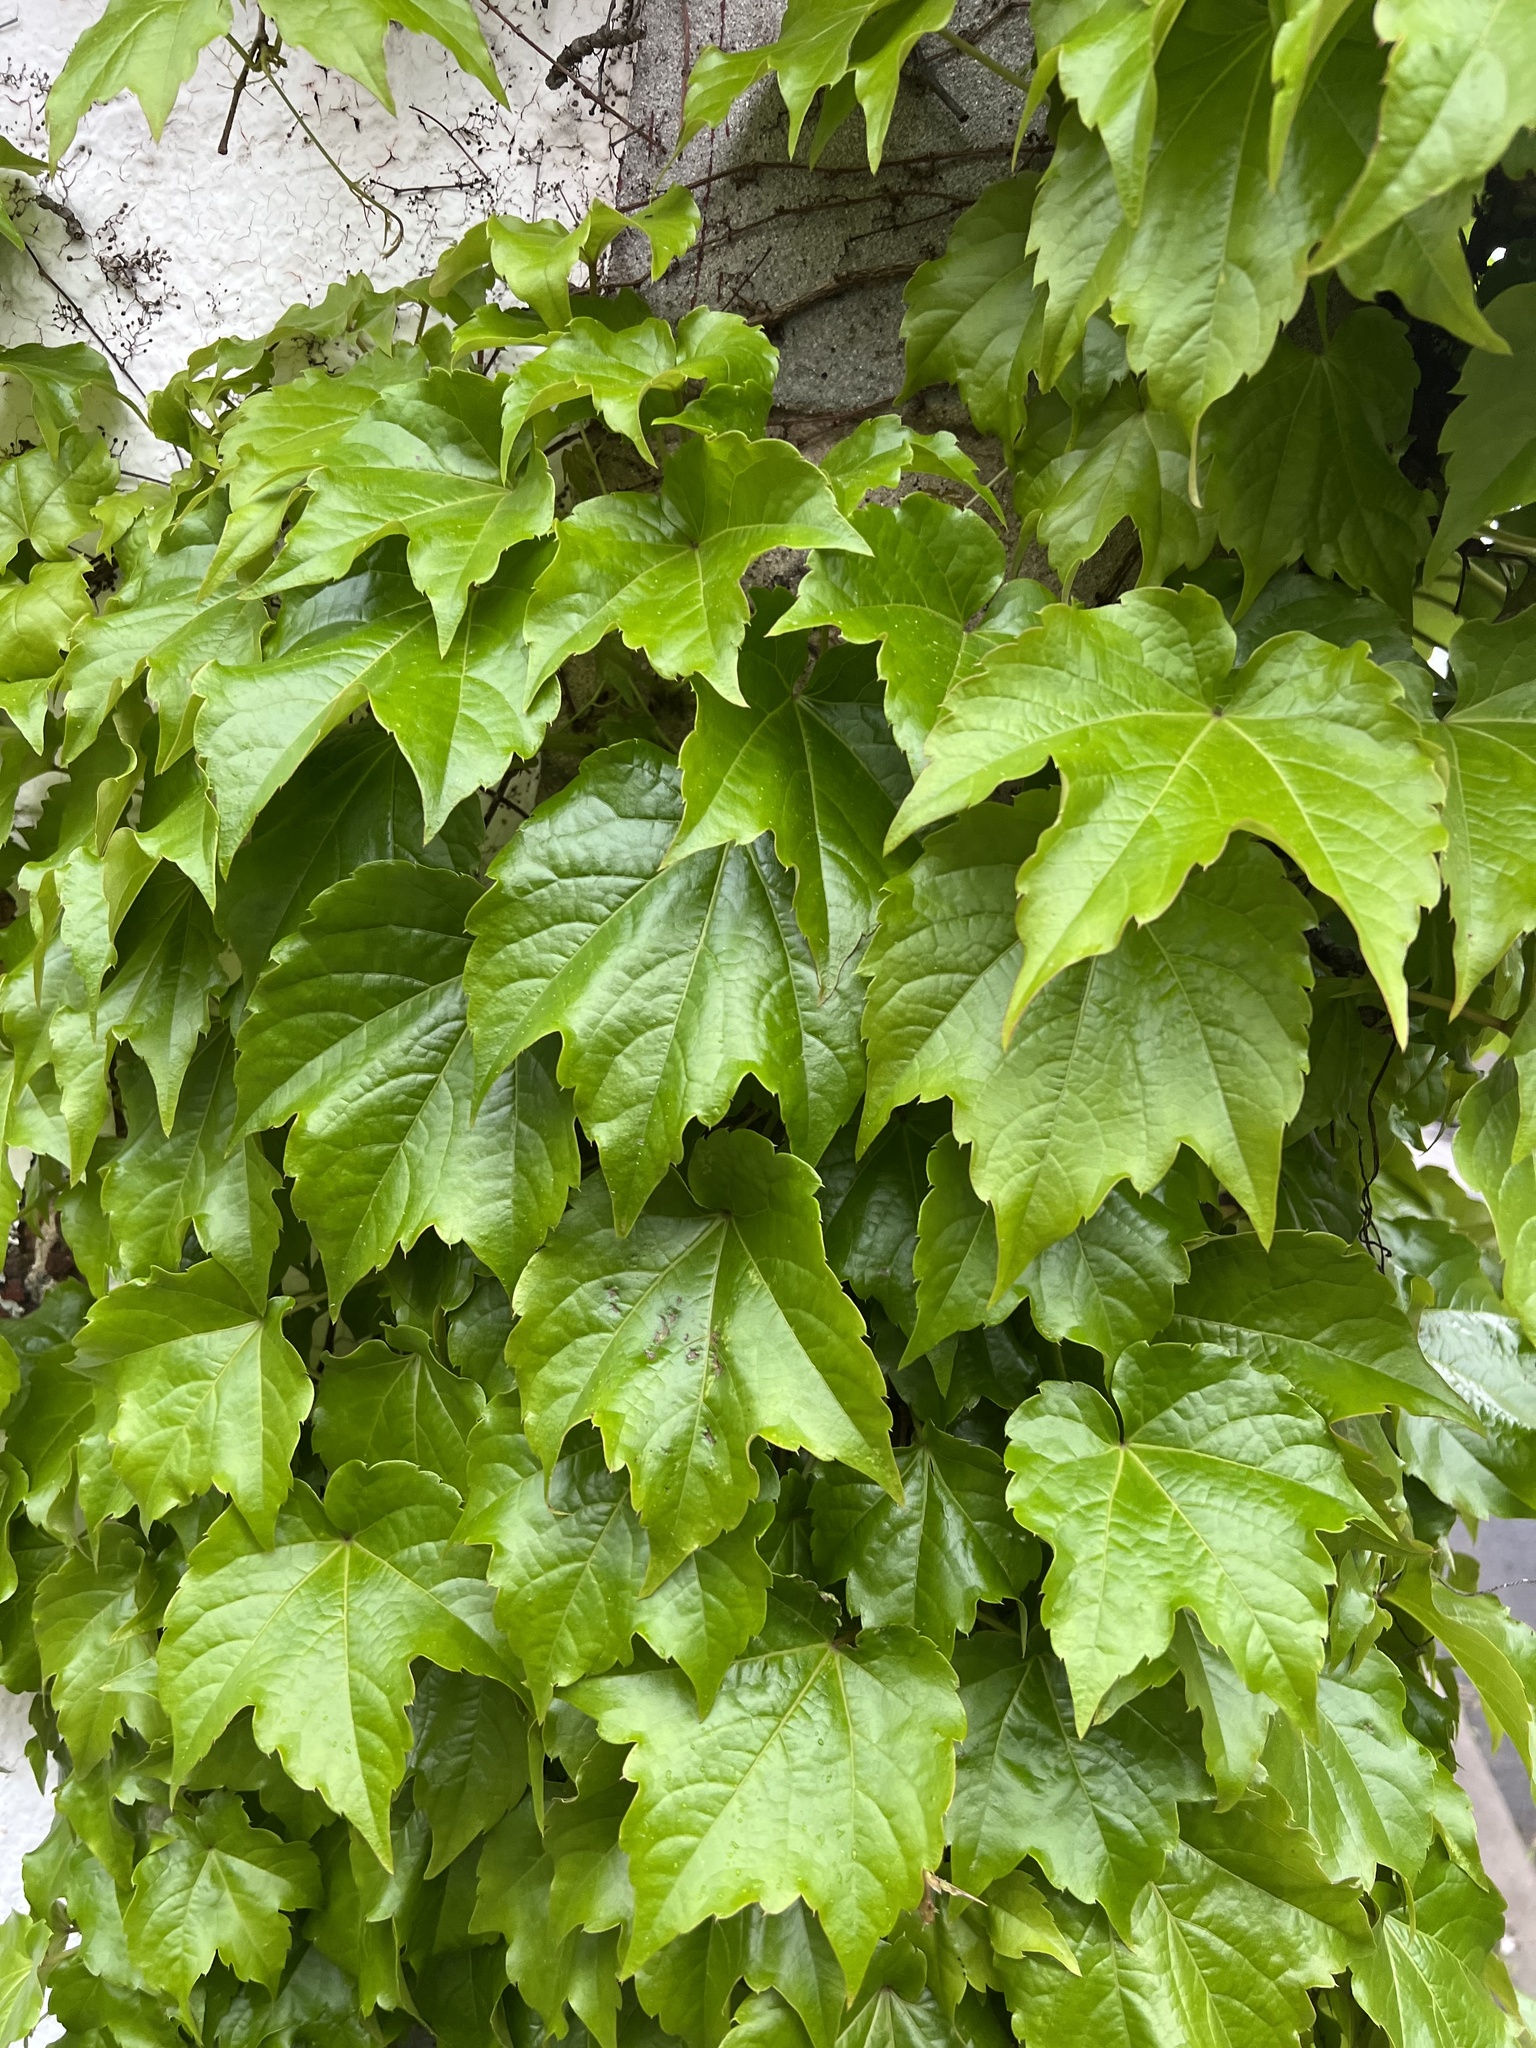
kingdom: Plantae
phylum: Tracheophyta
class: Magnoliopsida
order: Vitales
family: Vitaceae
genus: Parthenocissus
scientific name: Parthenocissus tricuspidata
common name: Boston ivy
